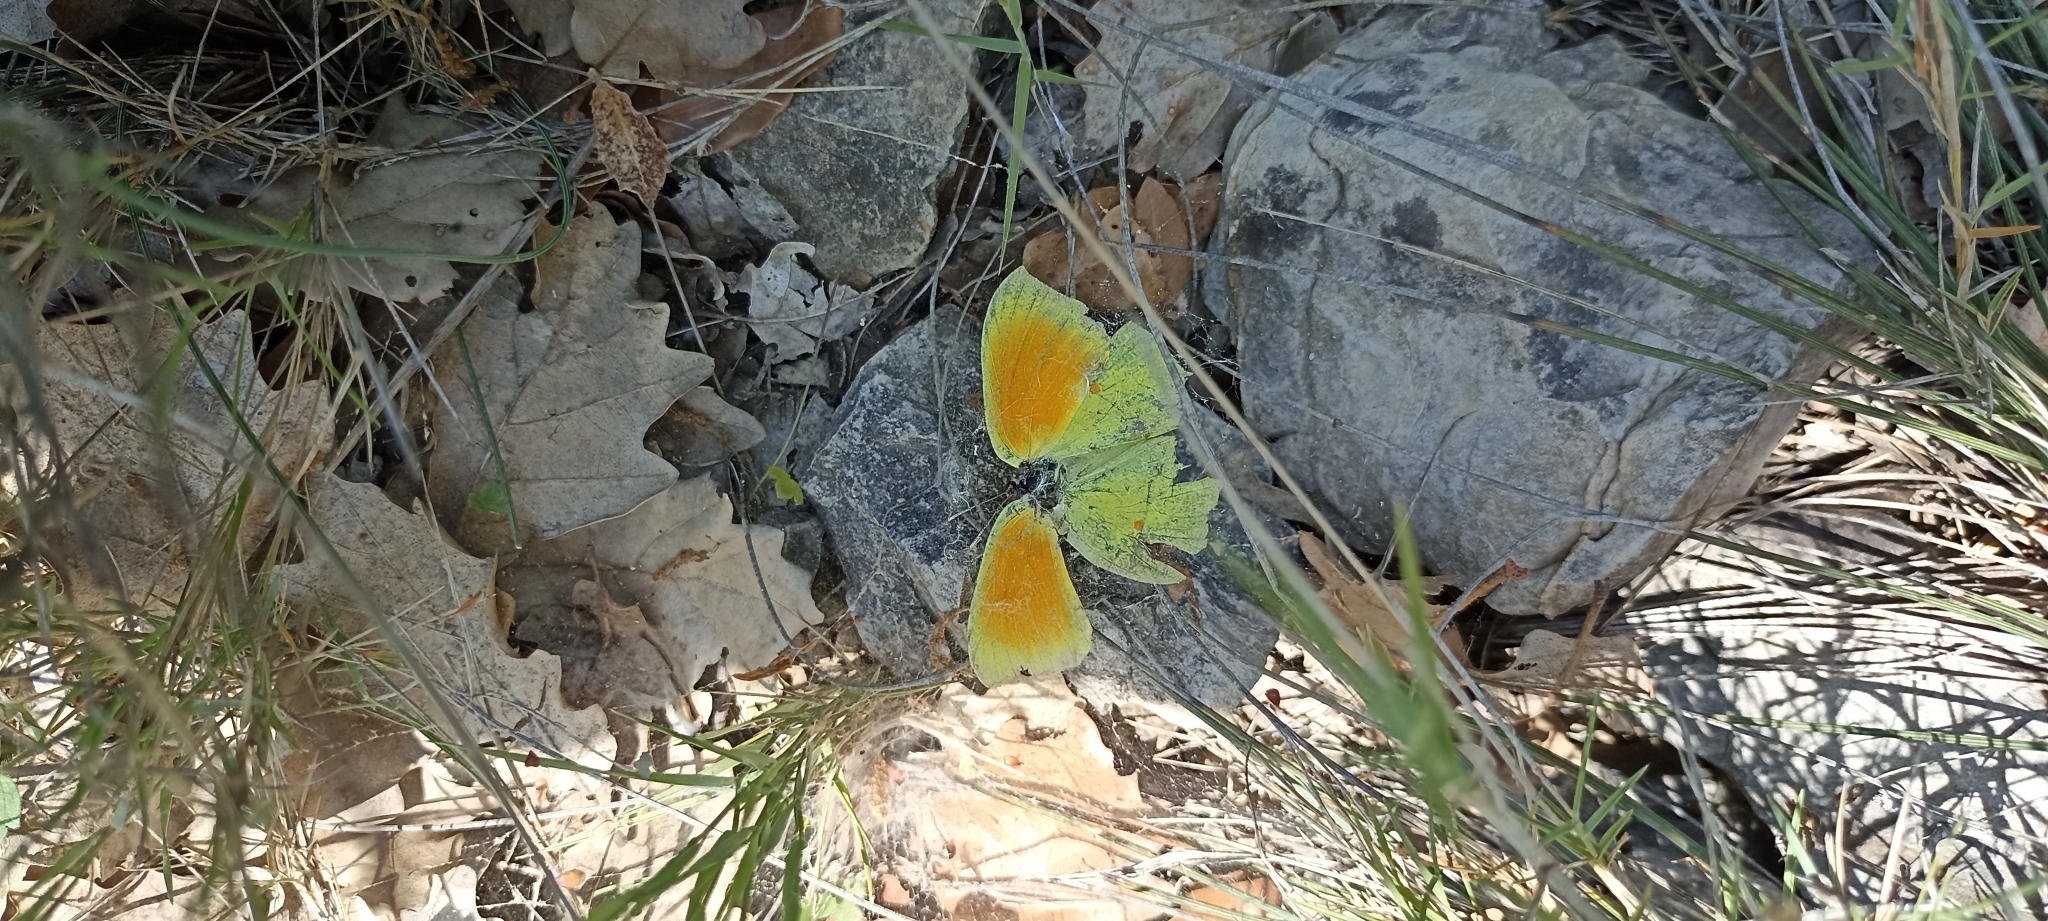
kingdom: Animalia
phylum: Arthropoda
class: Insecta
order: Lepidoptera
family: Pieridae
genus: Gonepteryx
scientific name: Gonepteryx cleopatra
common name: Cleopatra
